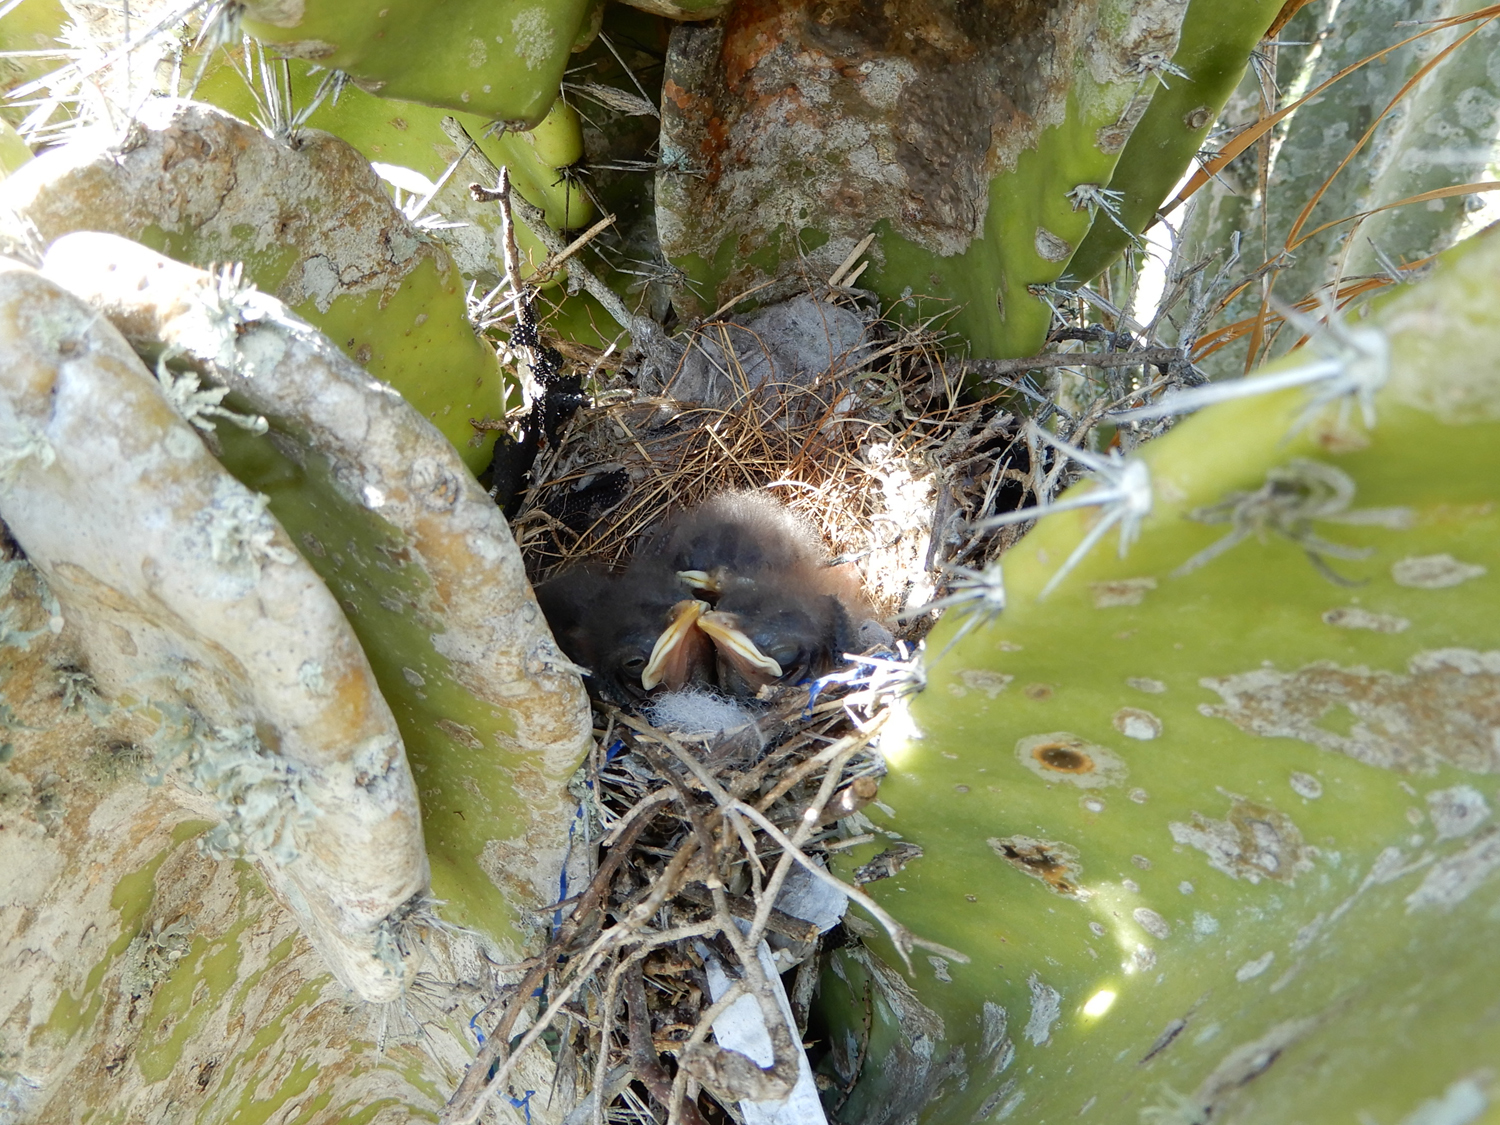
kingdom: Animalia
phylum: Chordata
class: Aves
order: Passeriformes
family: Mimidae
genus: Mimus
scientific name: Mimus polyglottos
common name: Northern mockingbird
